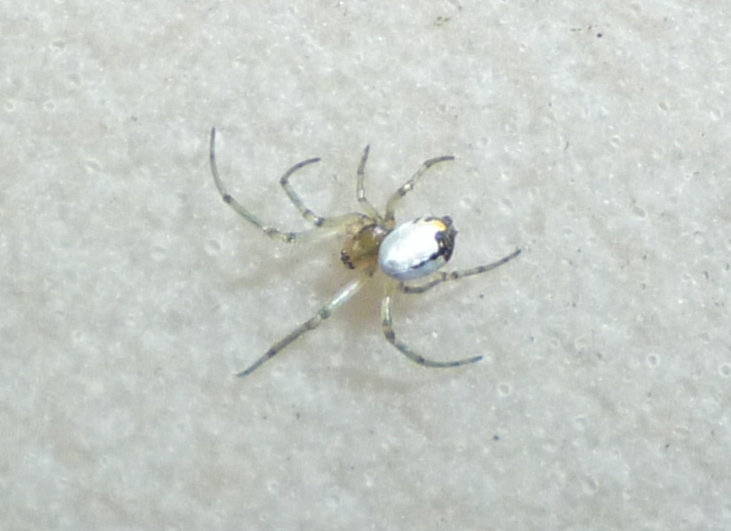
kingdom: Animalia
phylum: Arthropoda
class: Arachnida
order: Araneae
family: Tetragnathidae
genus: Leucauge
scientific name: Leucauge venusta
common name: Longjawed orb weavers
